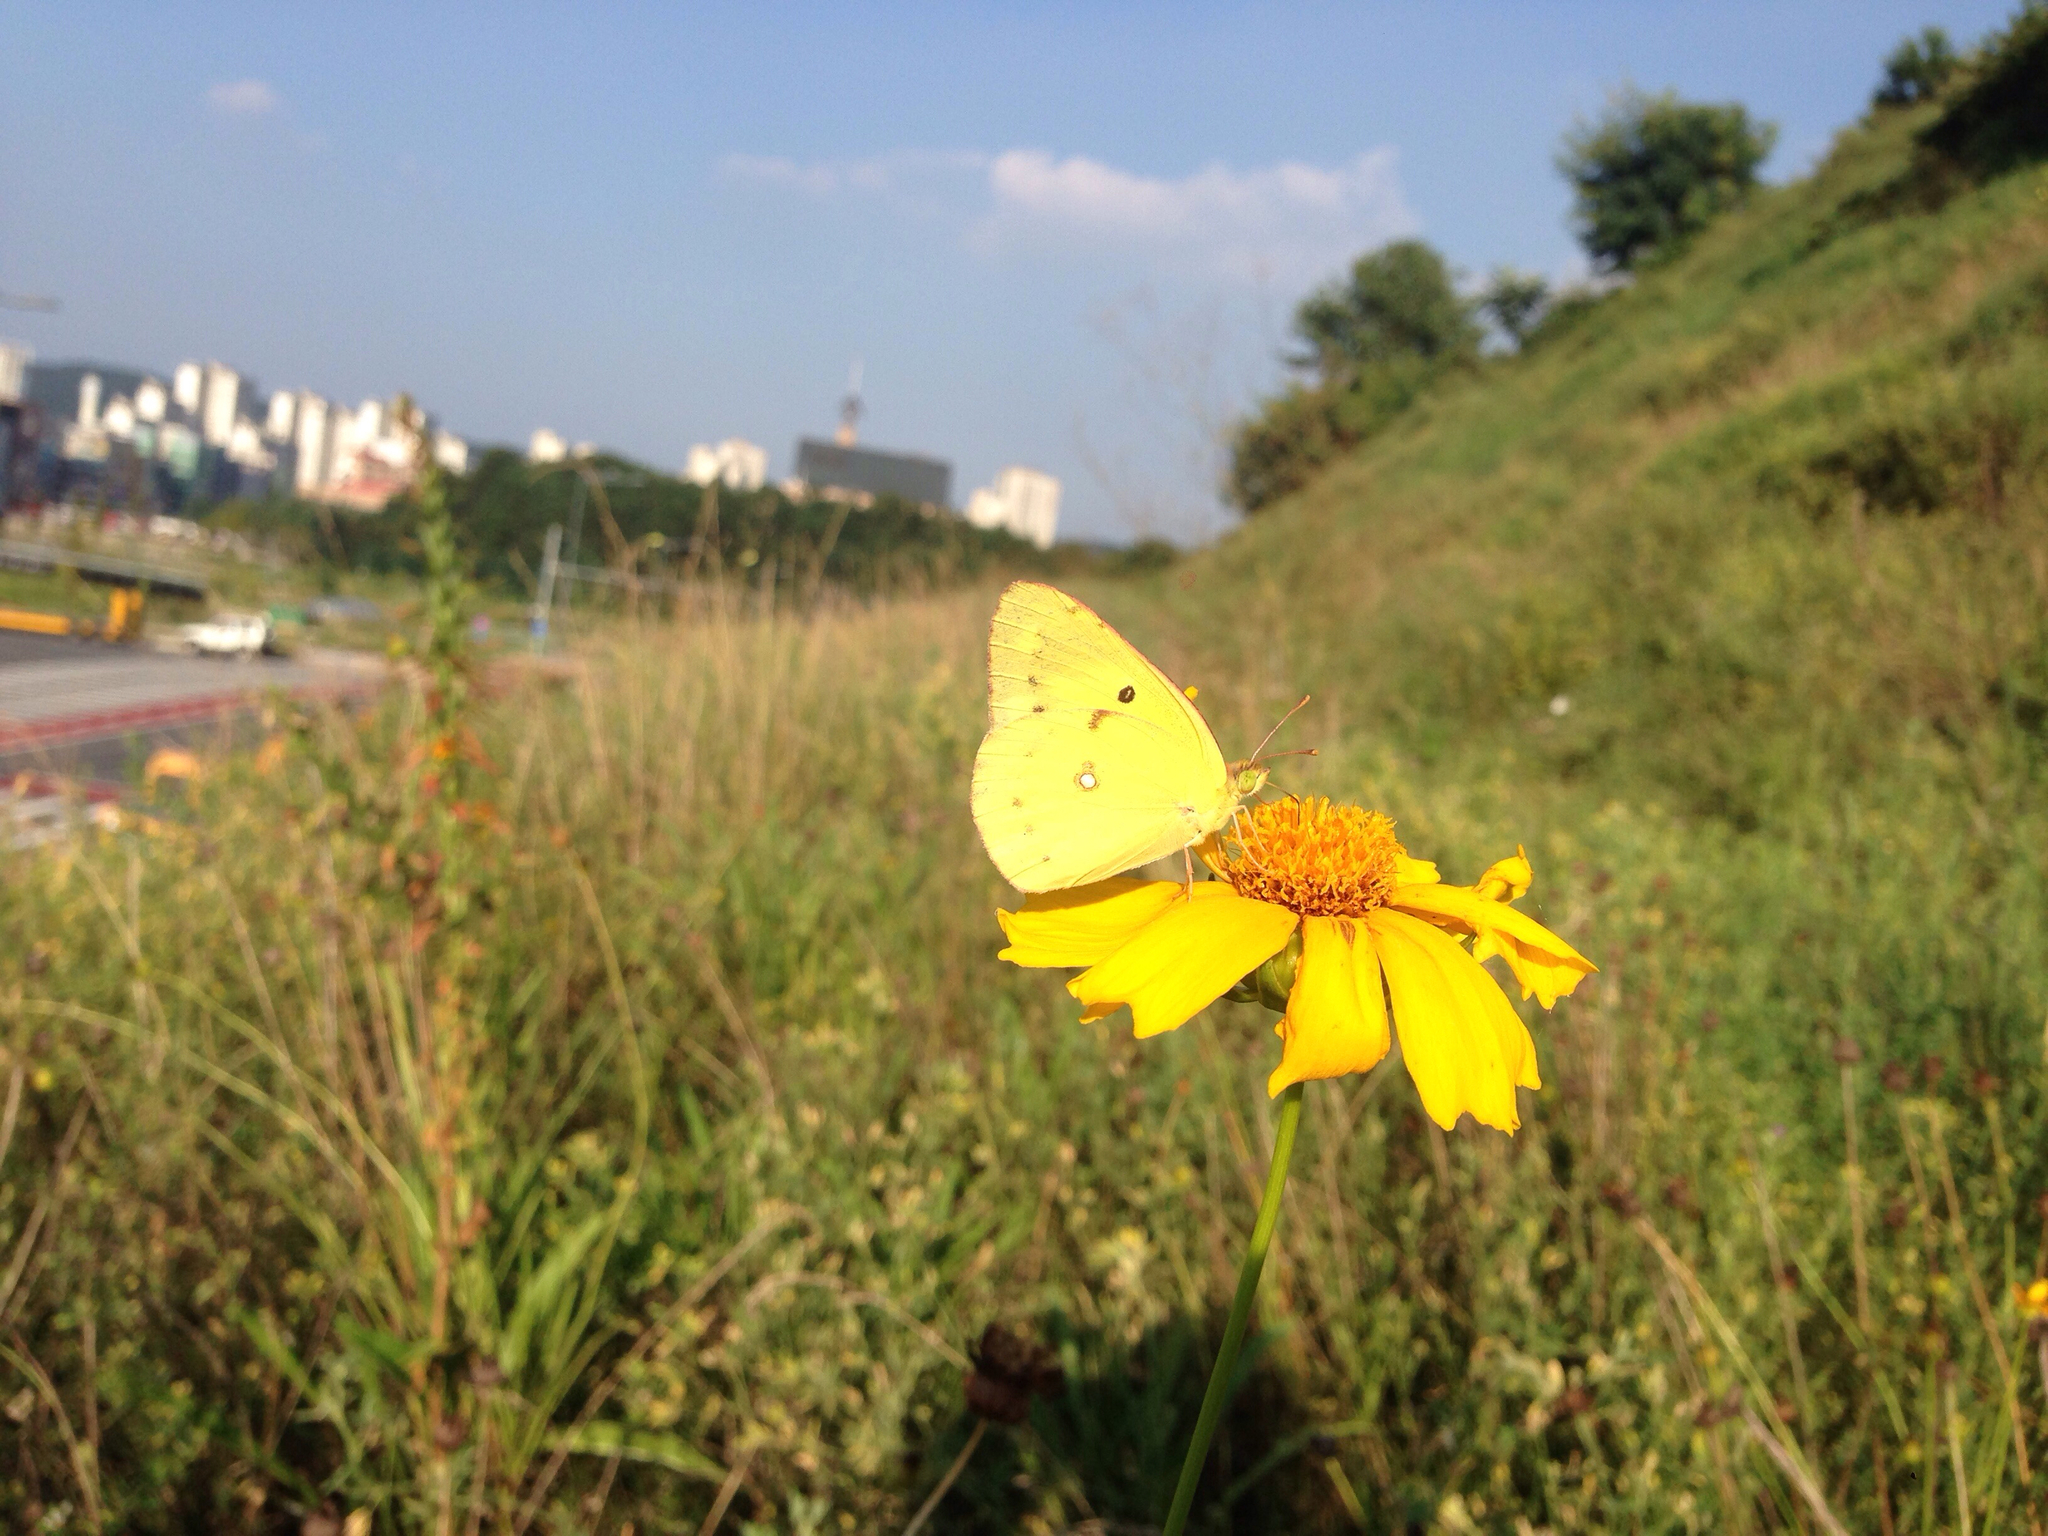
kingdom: Animalia
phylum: Arthropoda
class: Insecta
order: Lepidoptera
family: Pieridae
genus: Colias
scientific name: Colias poliographus
